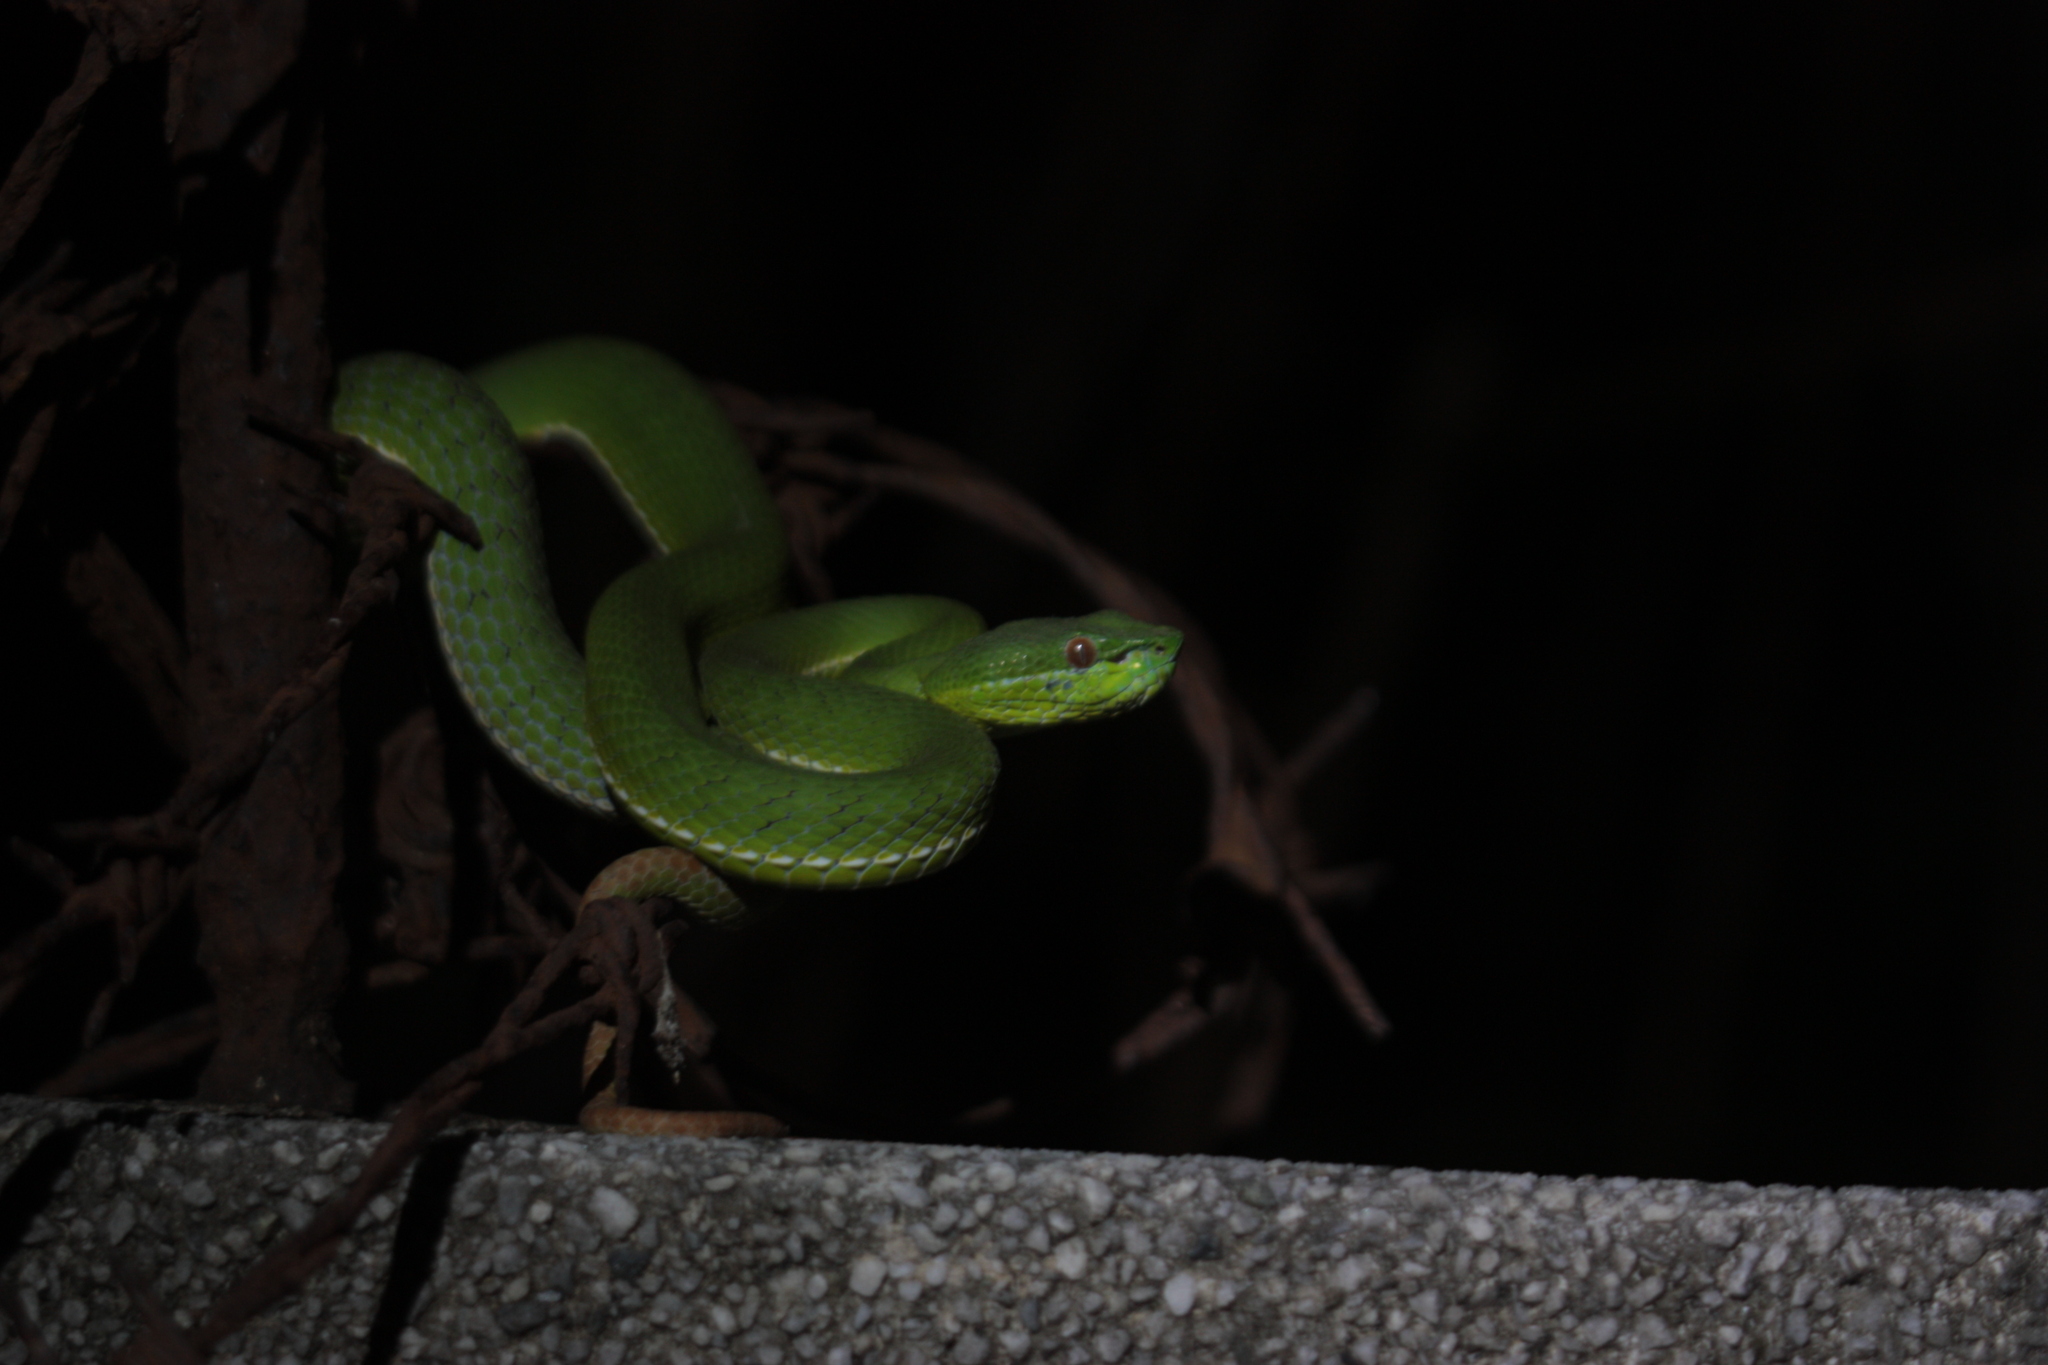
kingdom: Animalia
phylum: Chordata
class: Squamata
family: Viperidae
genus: Trimeresurus
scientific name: Trimeresurus stejnegeri
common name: Chen’s bamboo pit viper
